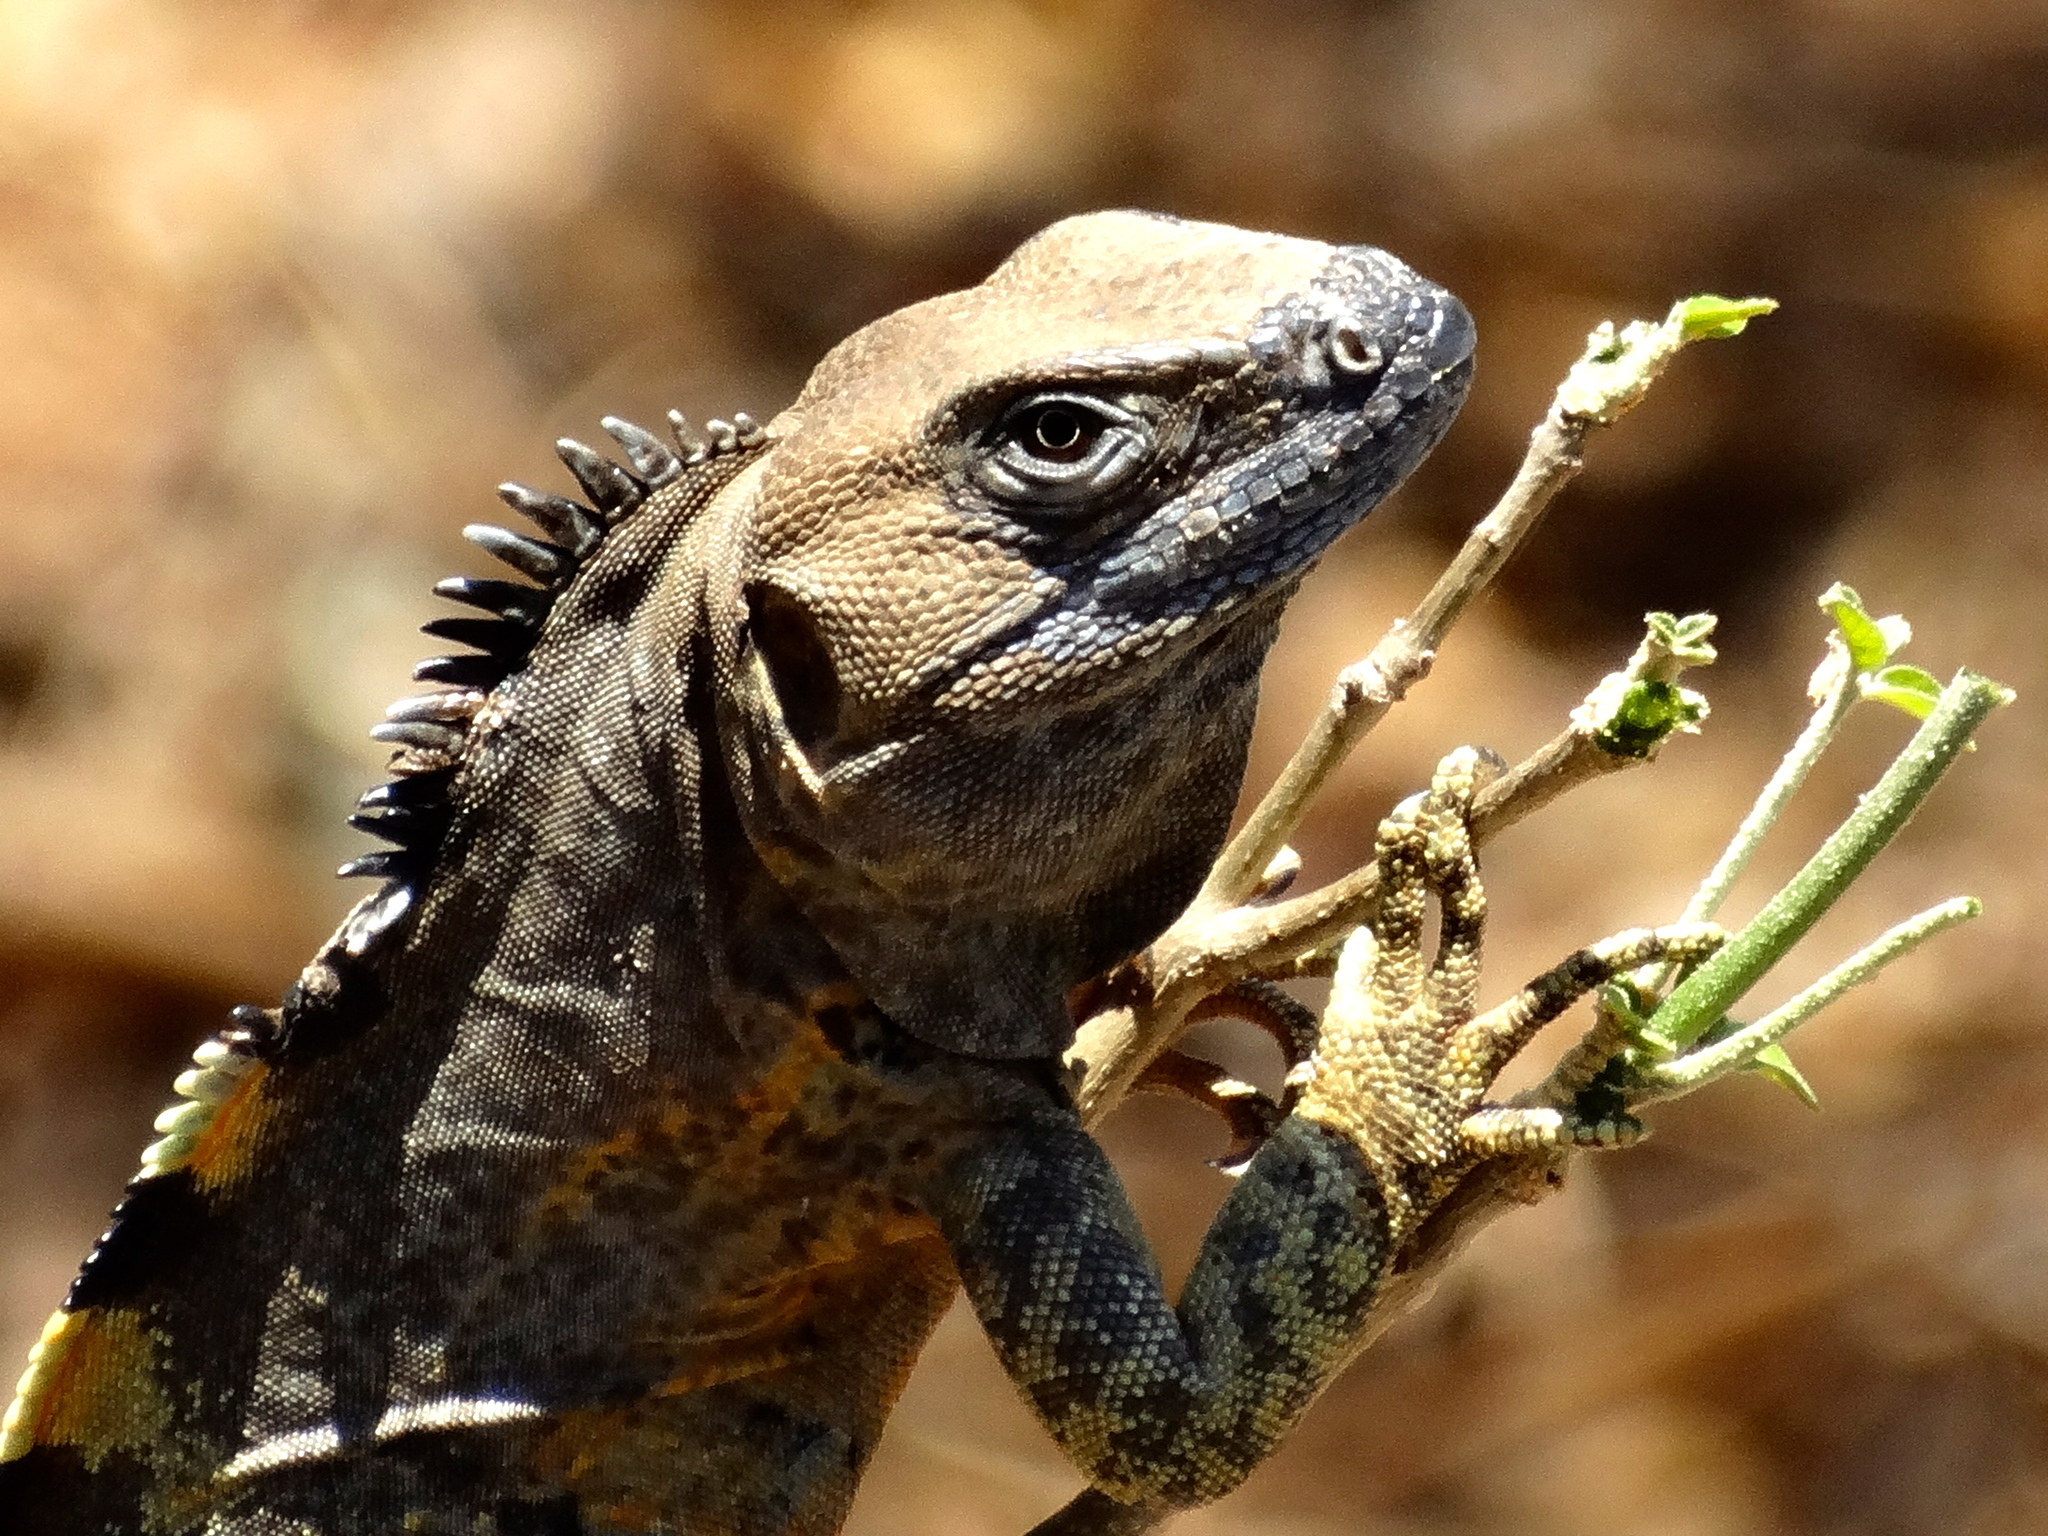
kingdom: Animalia
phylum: Chordata
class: Squamata
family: Iguanidae
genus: Ctenosaura
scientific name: Ctenosaura pectinata
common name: Guerreran spiny-tailed iguana
